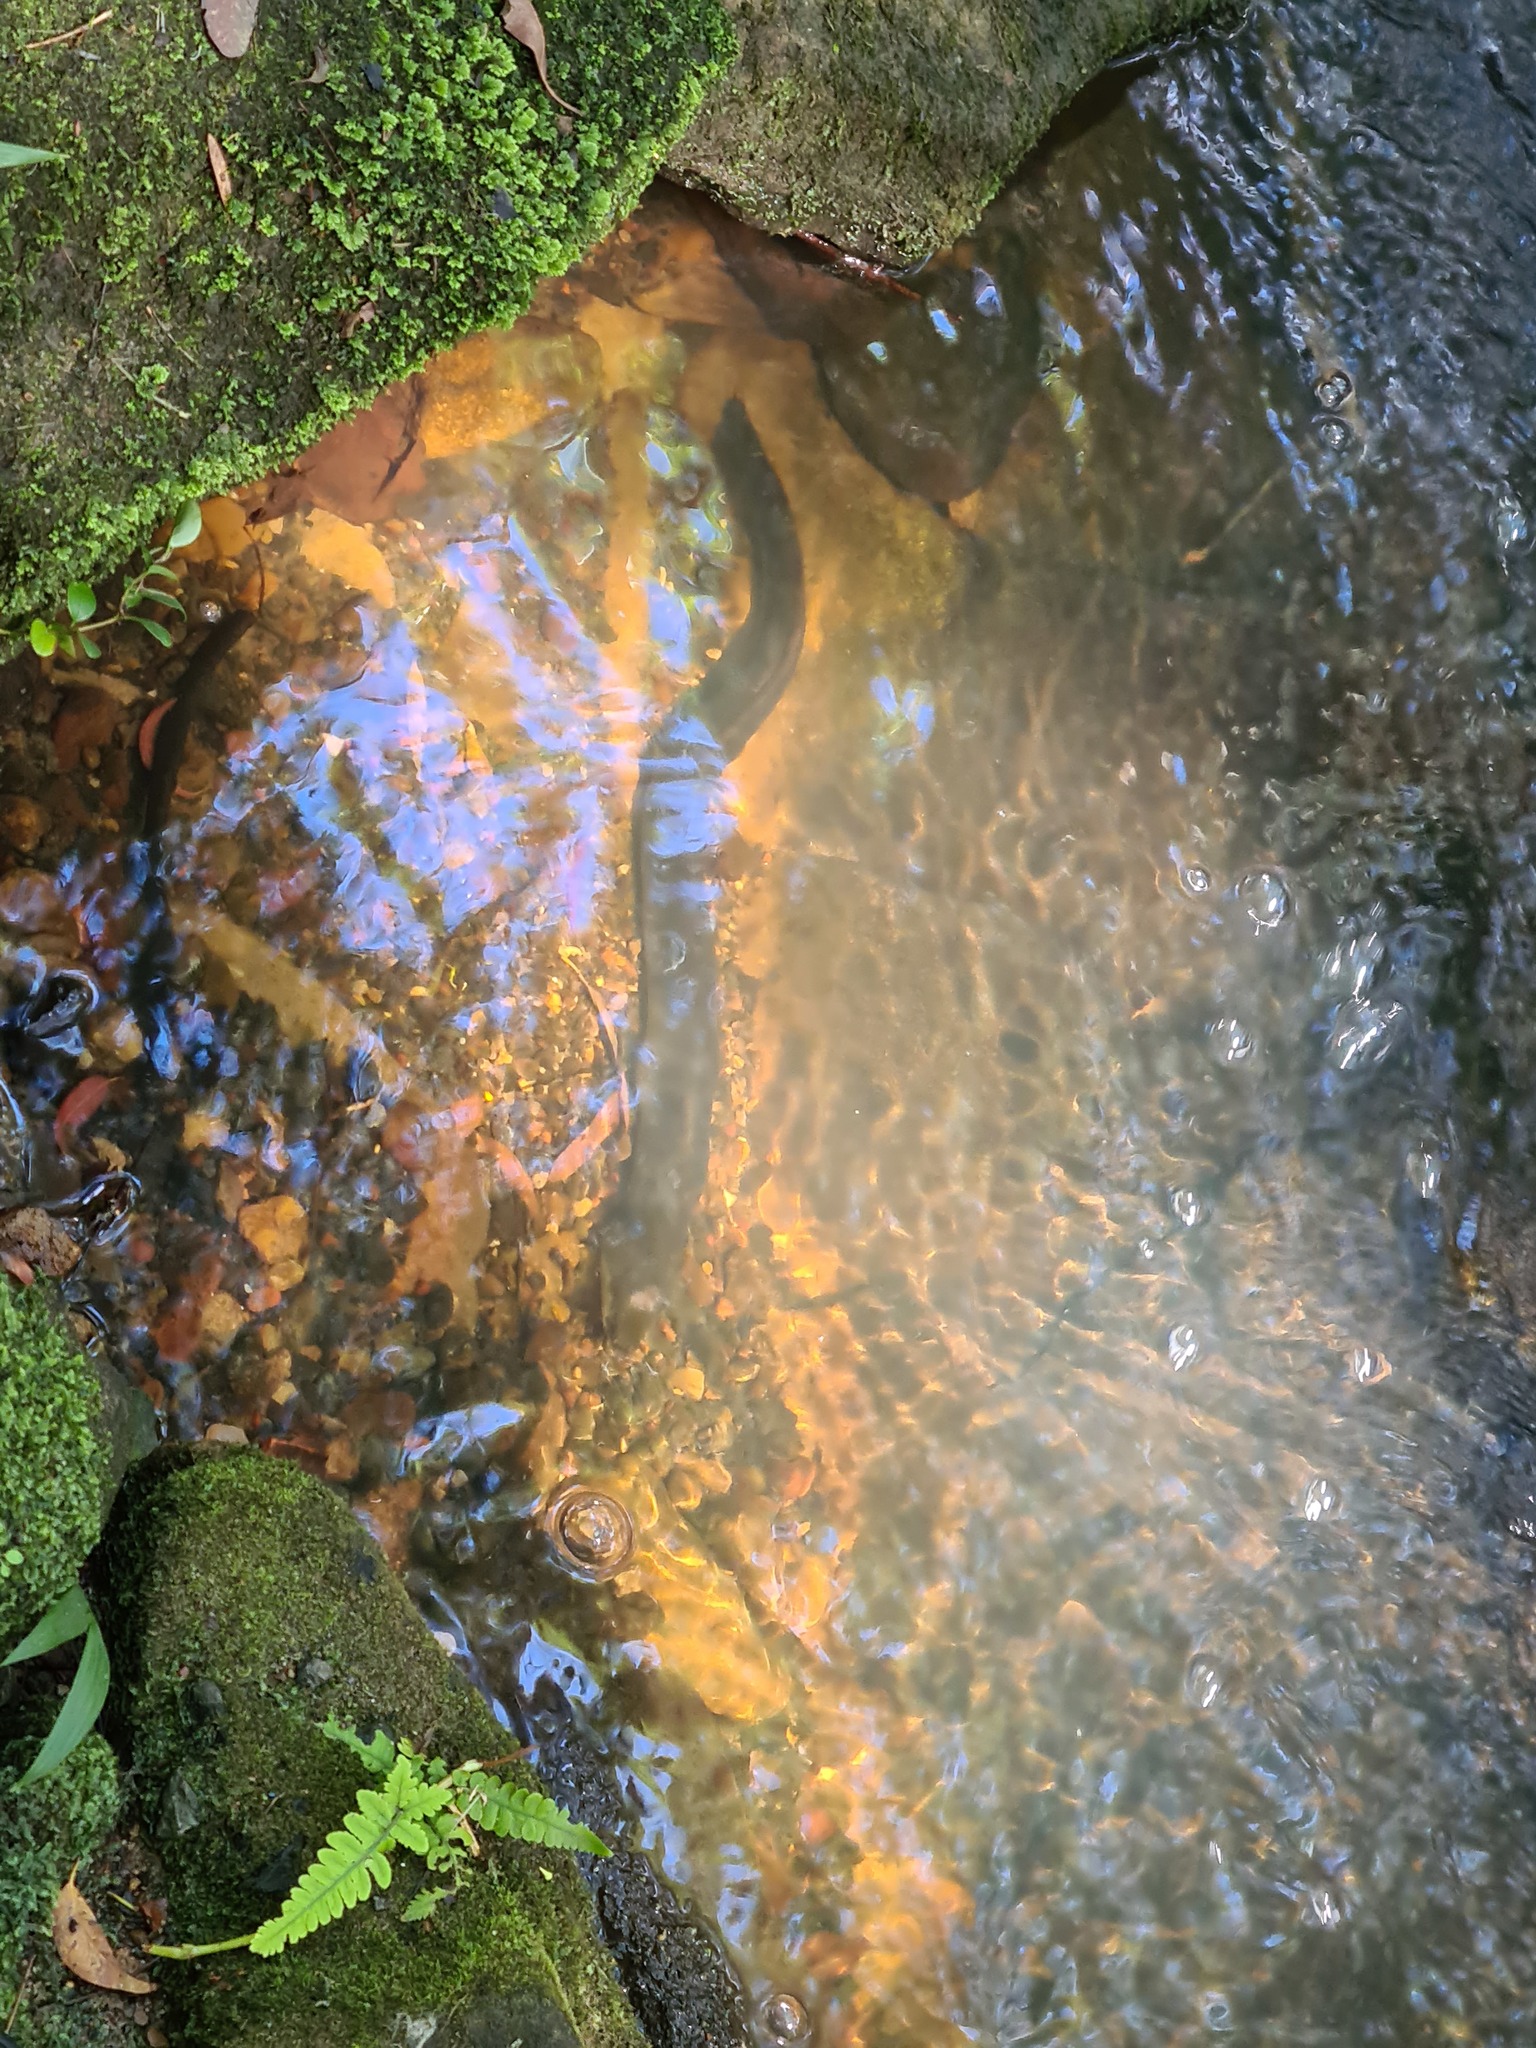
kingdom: Animalia
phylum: Chordata
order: Anguilliformes
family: Anguillidae
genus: Anguilla
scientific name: Anguilla australis
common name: Shortfin eel
